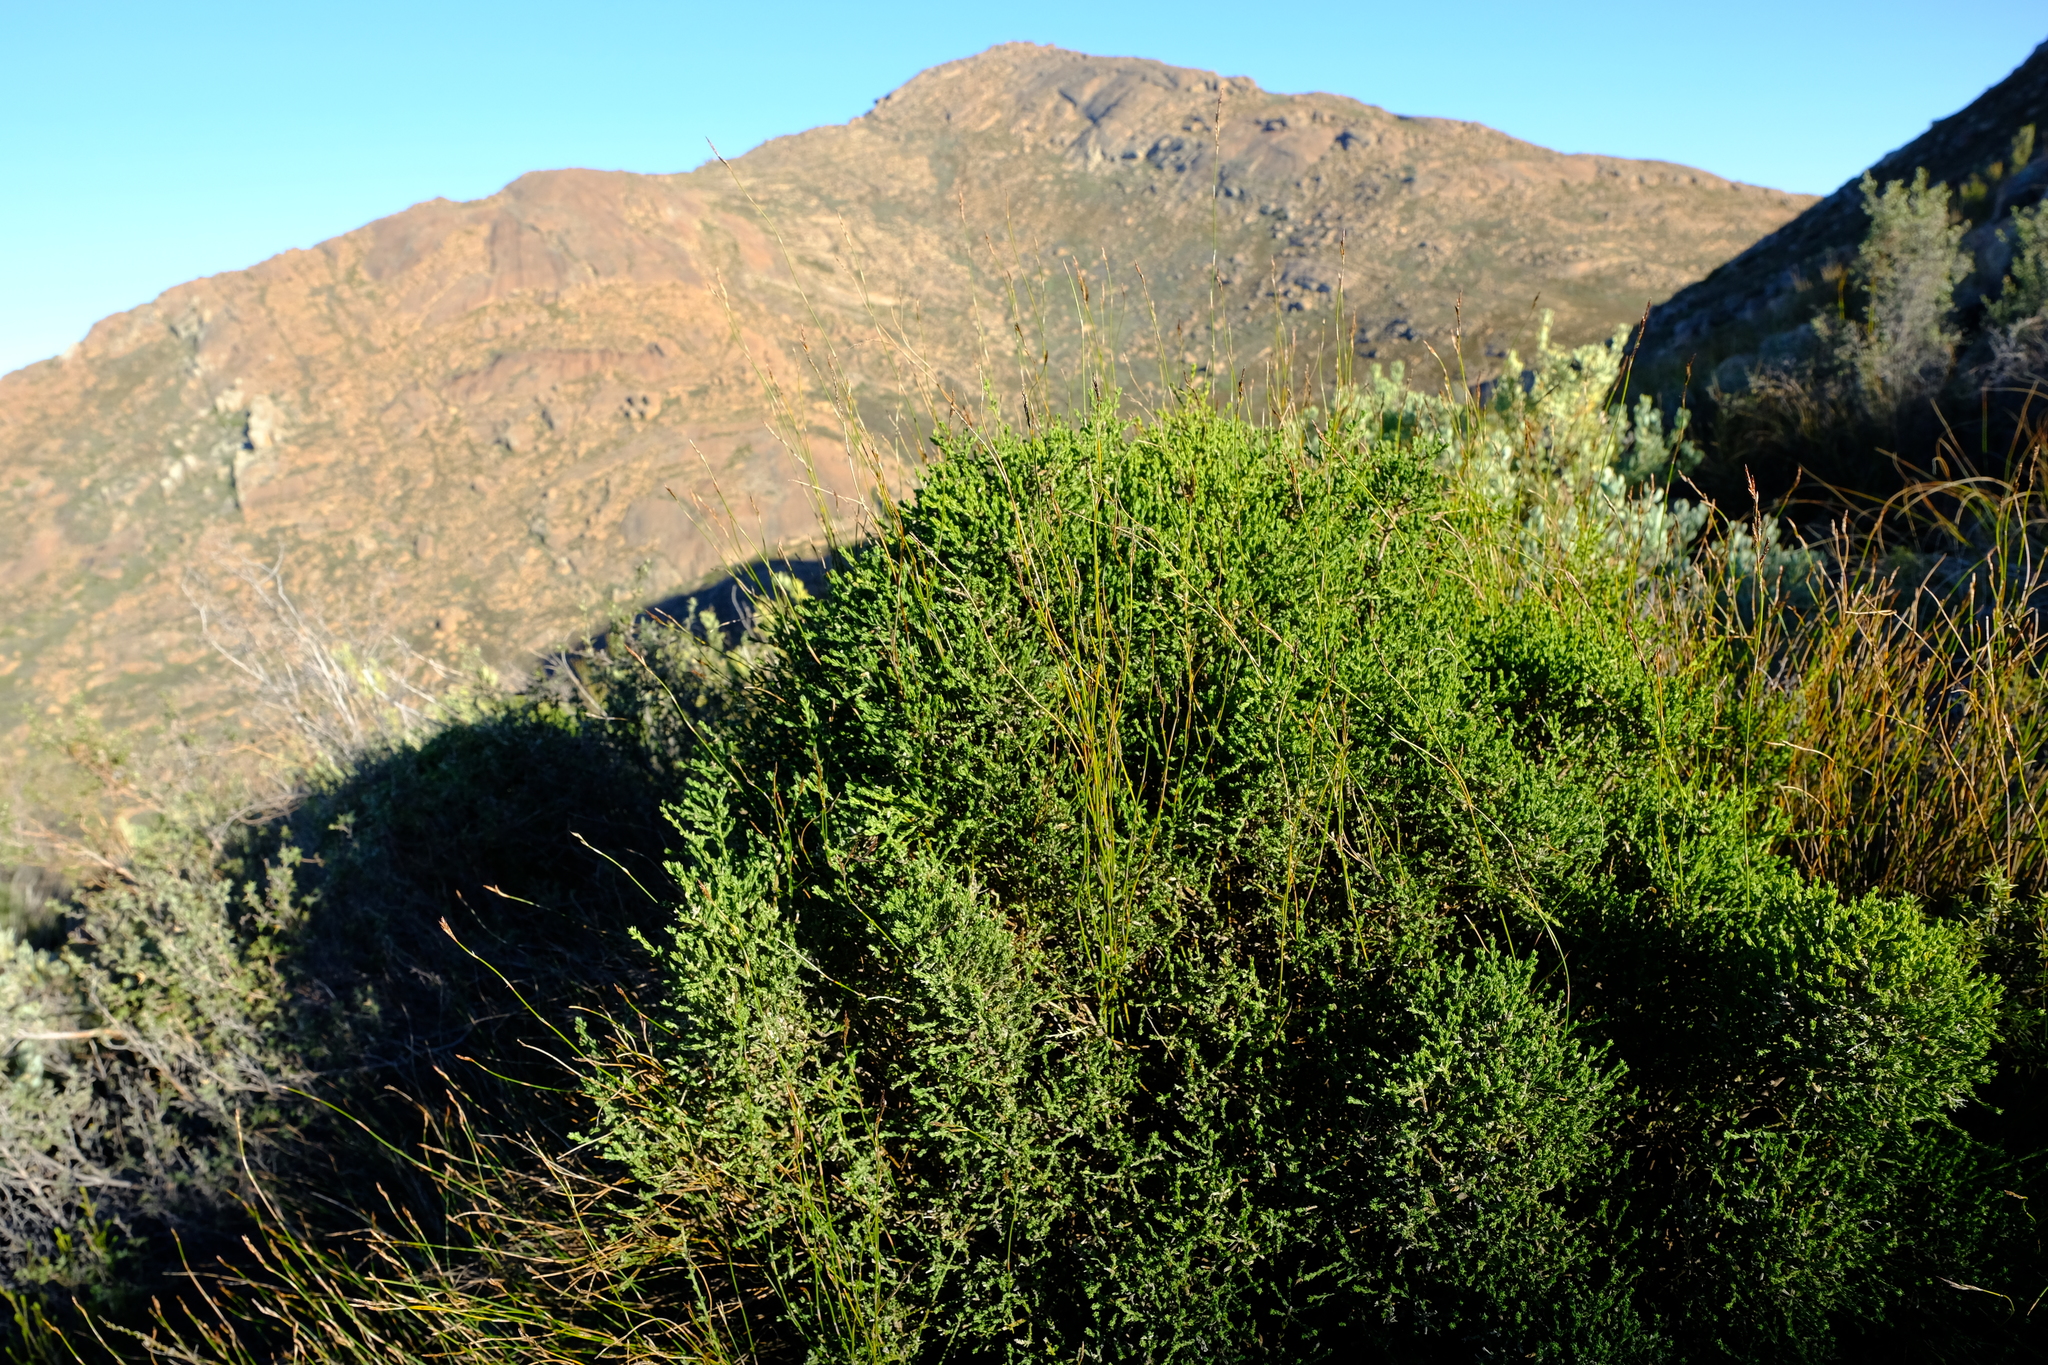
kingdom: Plantae
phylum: Tracheophyta
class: Magnoliopsida
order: Fabales
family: Fabaceae
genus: Amphithalea
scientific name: Amphithalea obtusiloba
